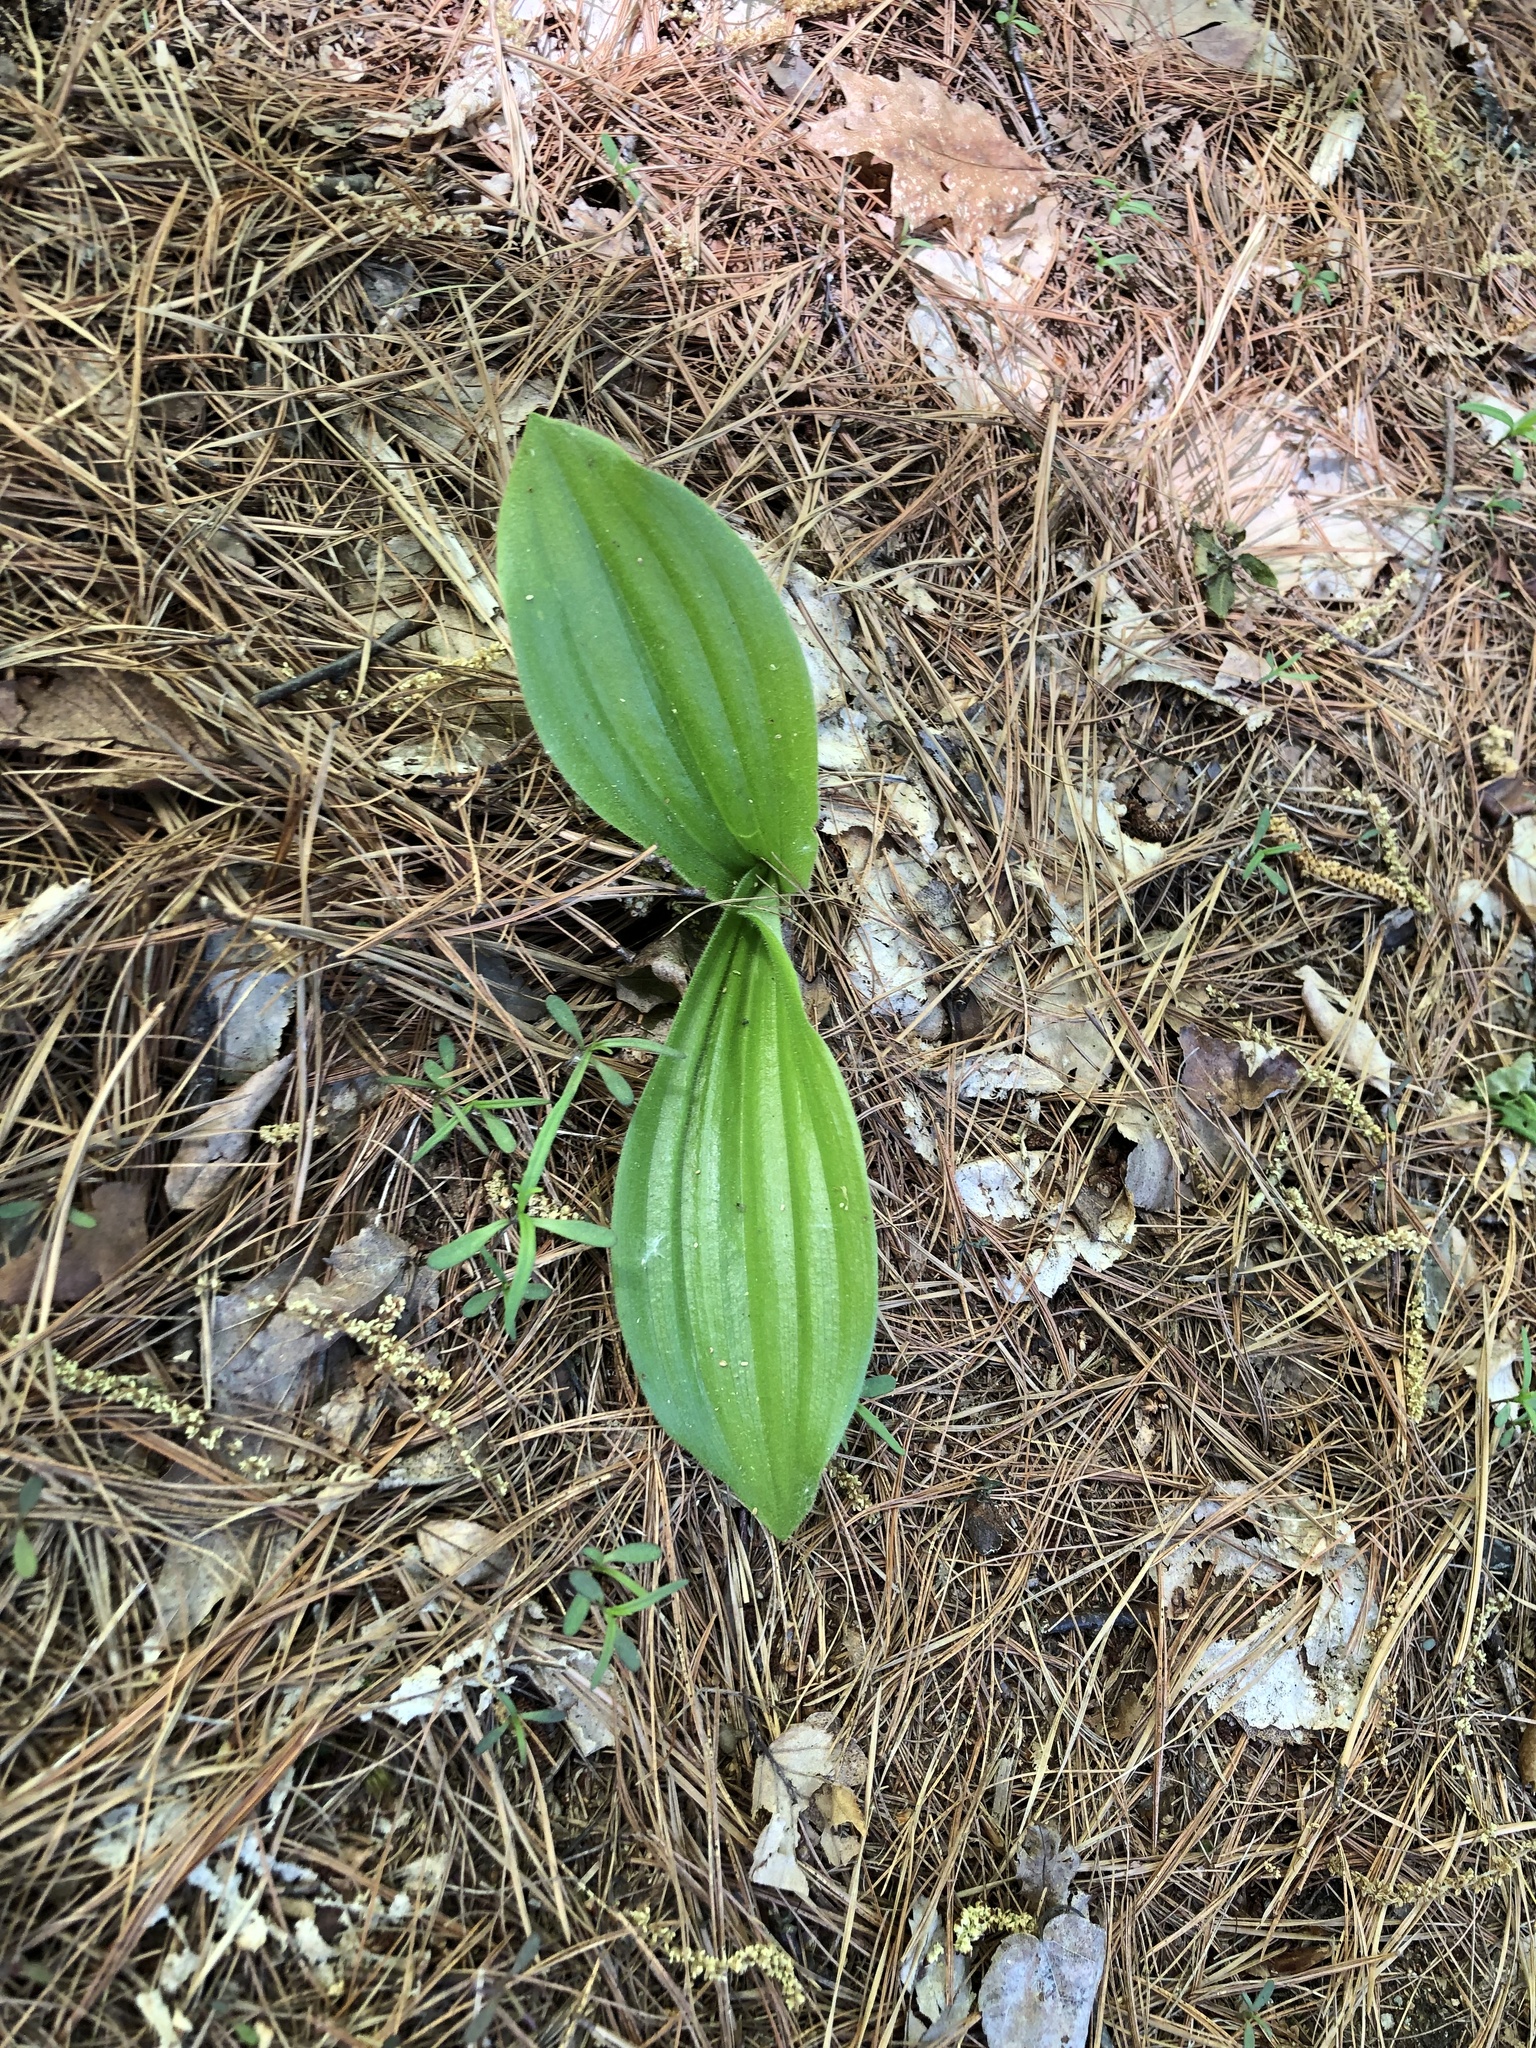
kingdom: Plantae
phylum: Tracheophyta
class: Liliopsida
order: Asparagales
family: Orchidaceae
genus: Cypripedium
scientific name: Cypripedium acaule
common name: Pink lady's-slipper
